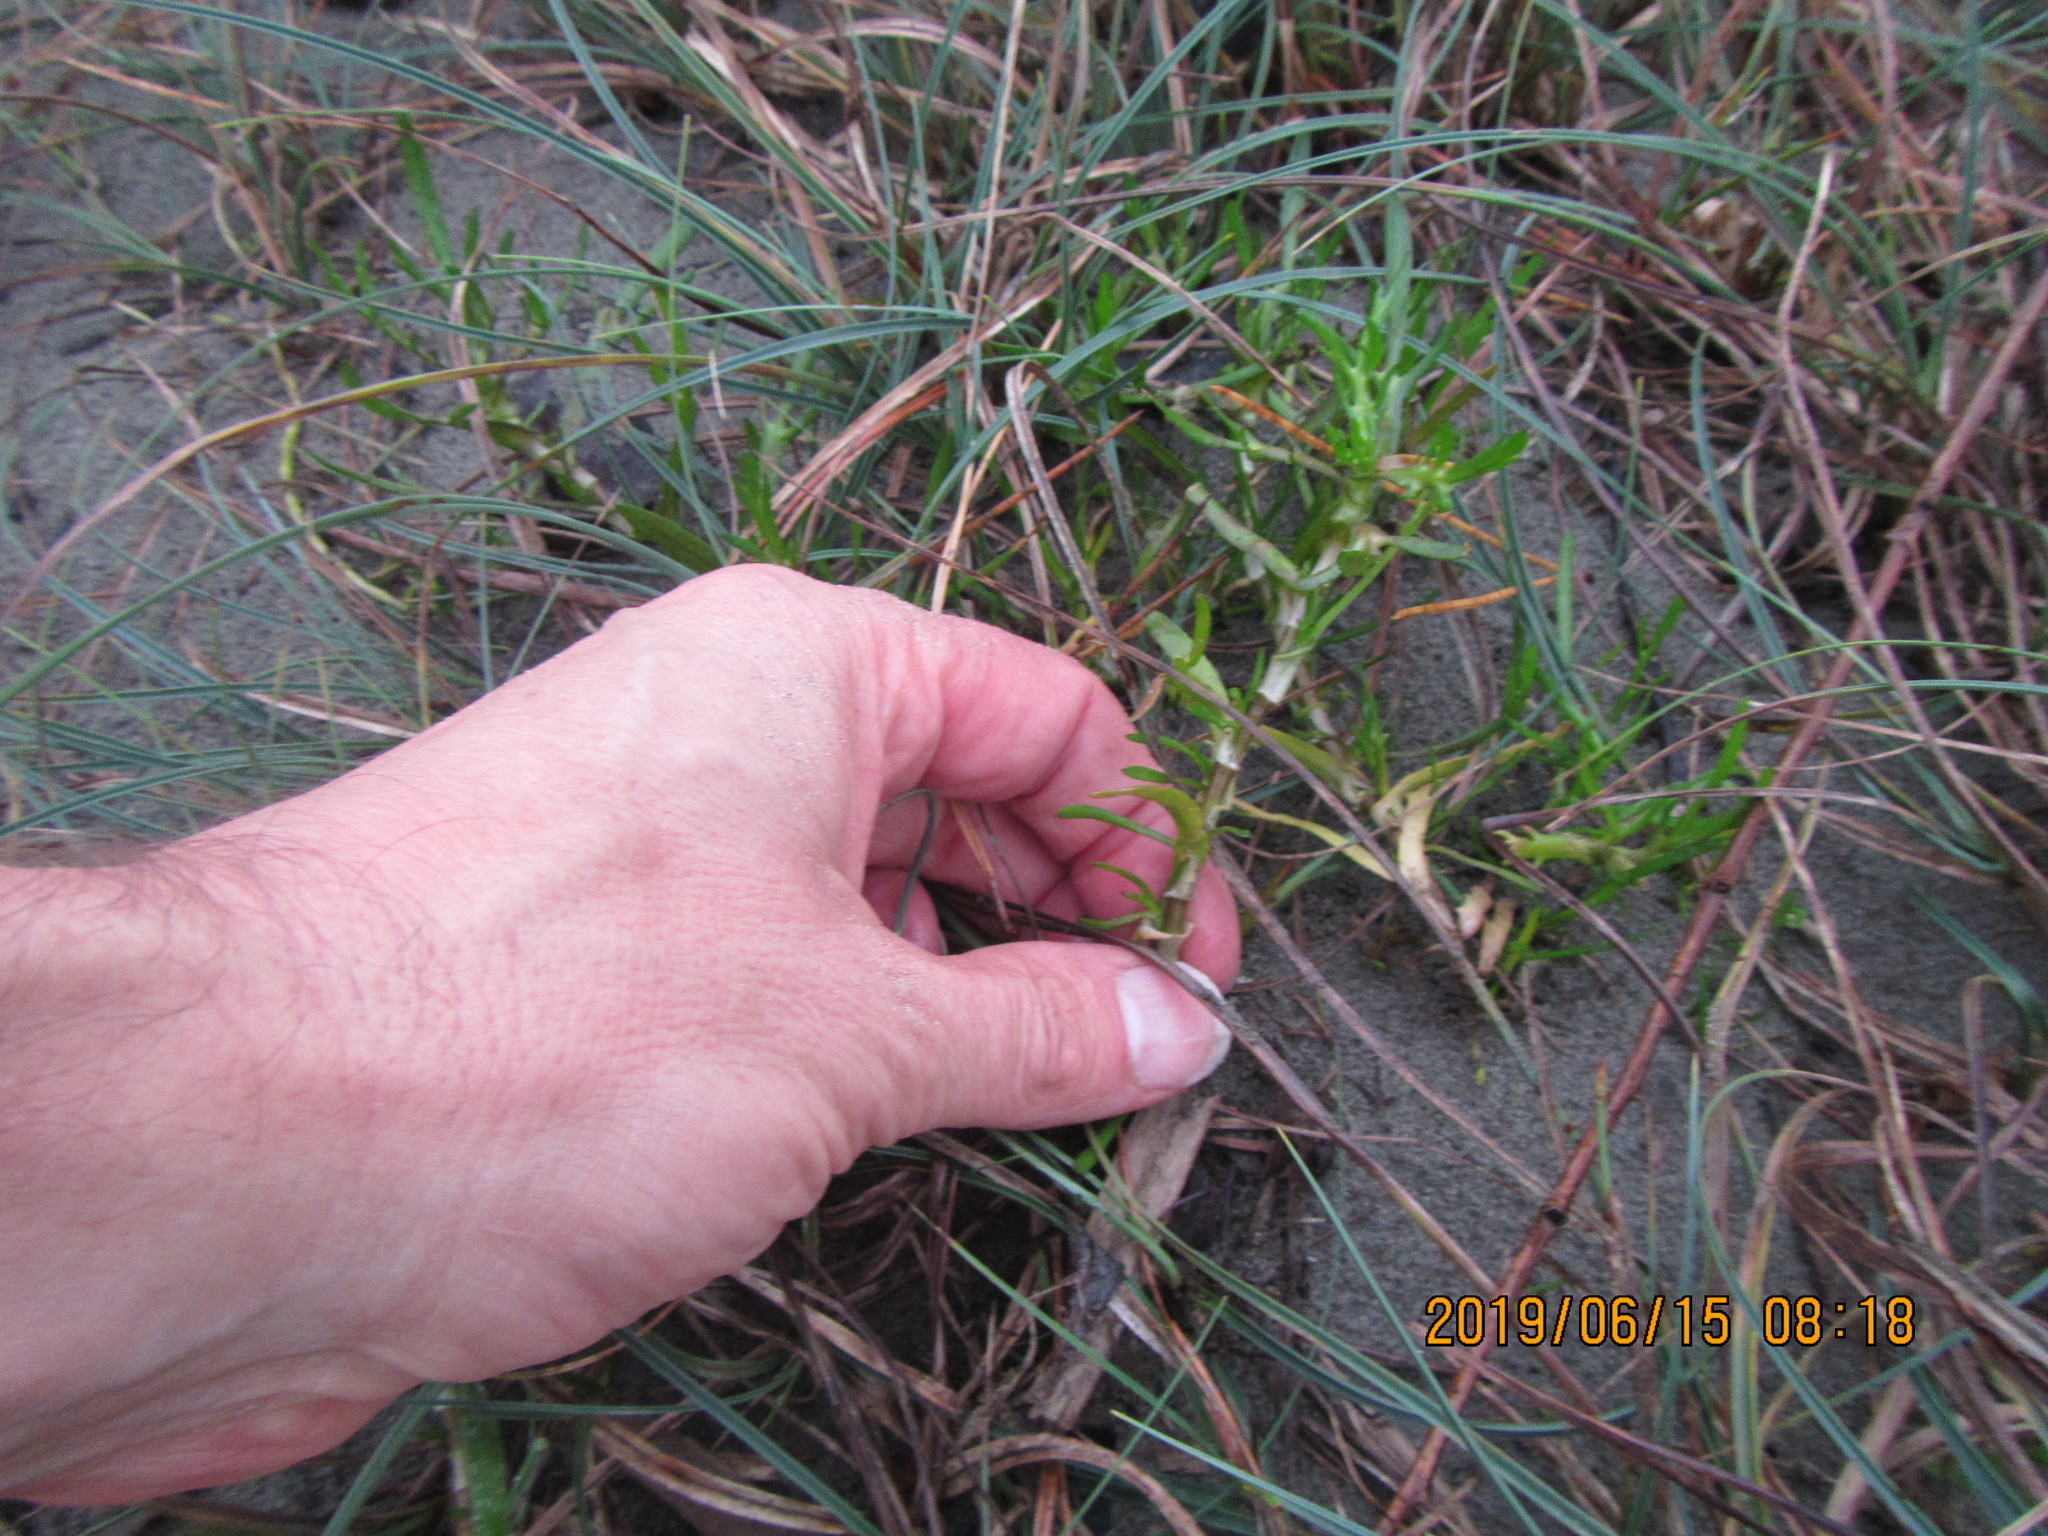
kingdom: Plantae
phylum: Tracheophyta
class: Magnoliopsida
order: Asterales
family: Asteraceae
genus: Cotula
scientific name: Cotula coronopifolia
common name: Buttonweed
